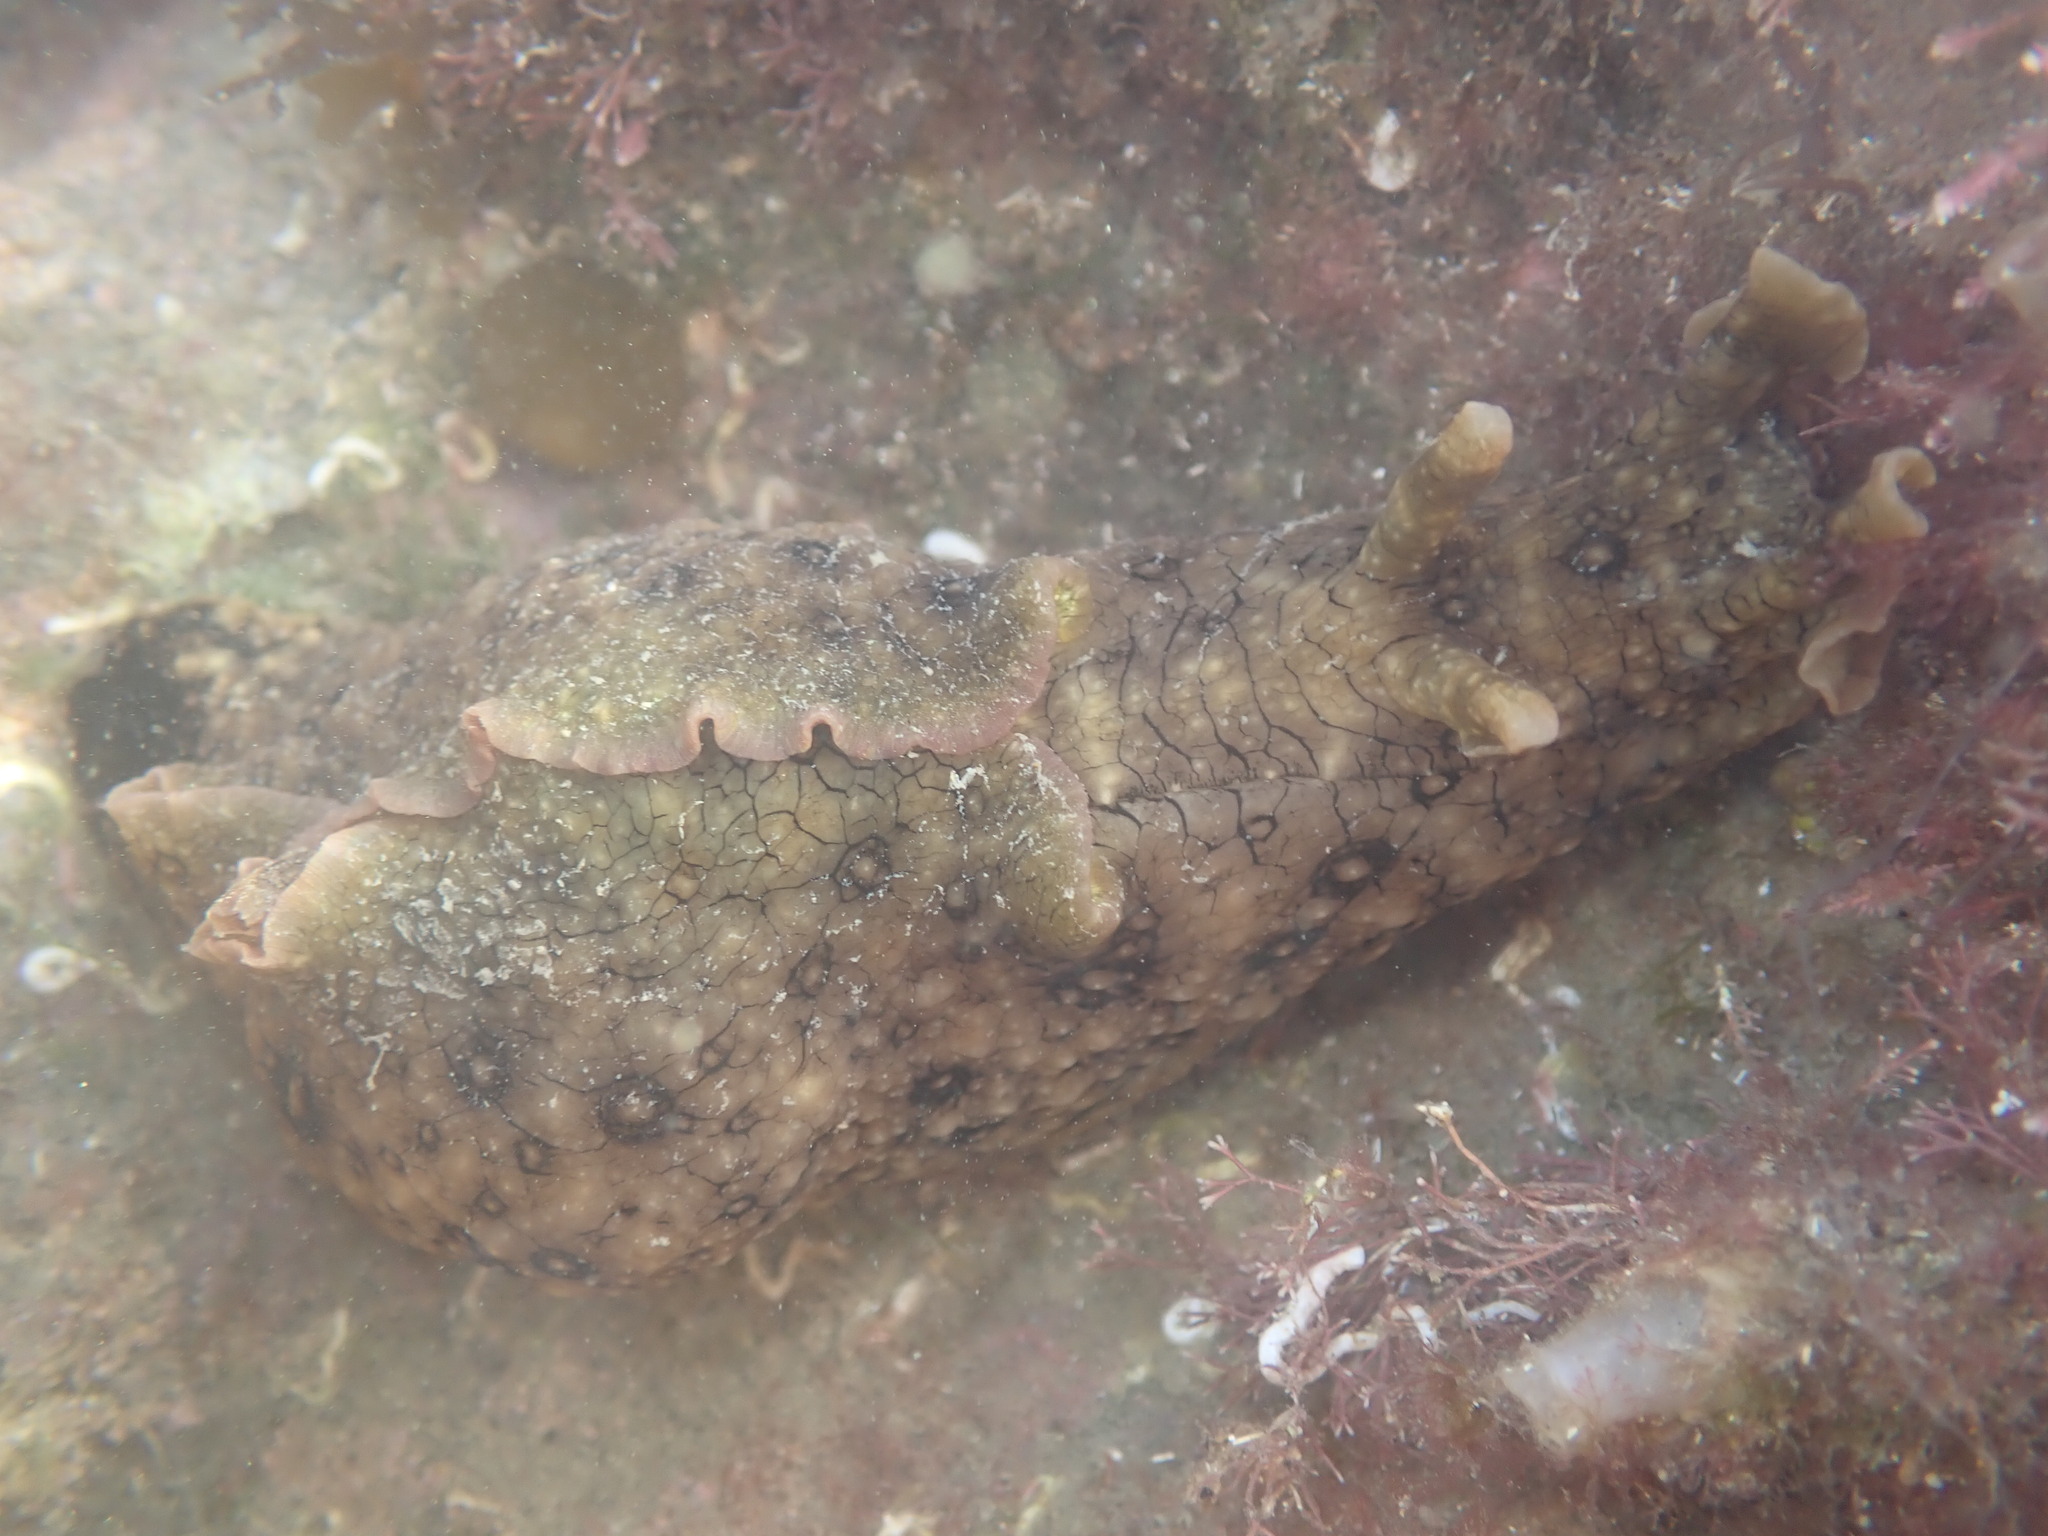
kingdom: Animalia
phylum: Mollusca
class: Gastropoda
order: Aplysiida
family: Aplysiidae
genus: Aplysia
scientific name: Aplysia argus
